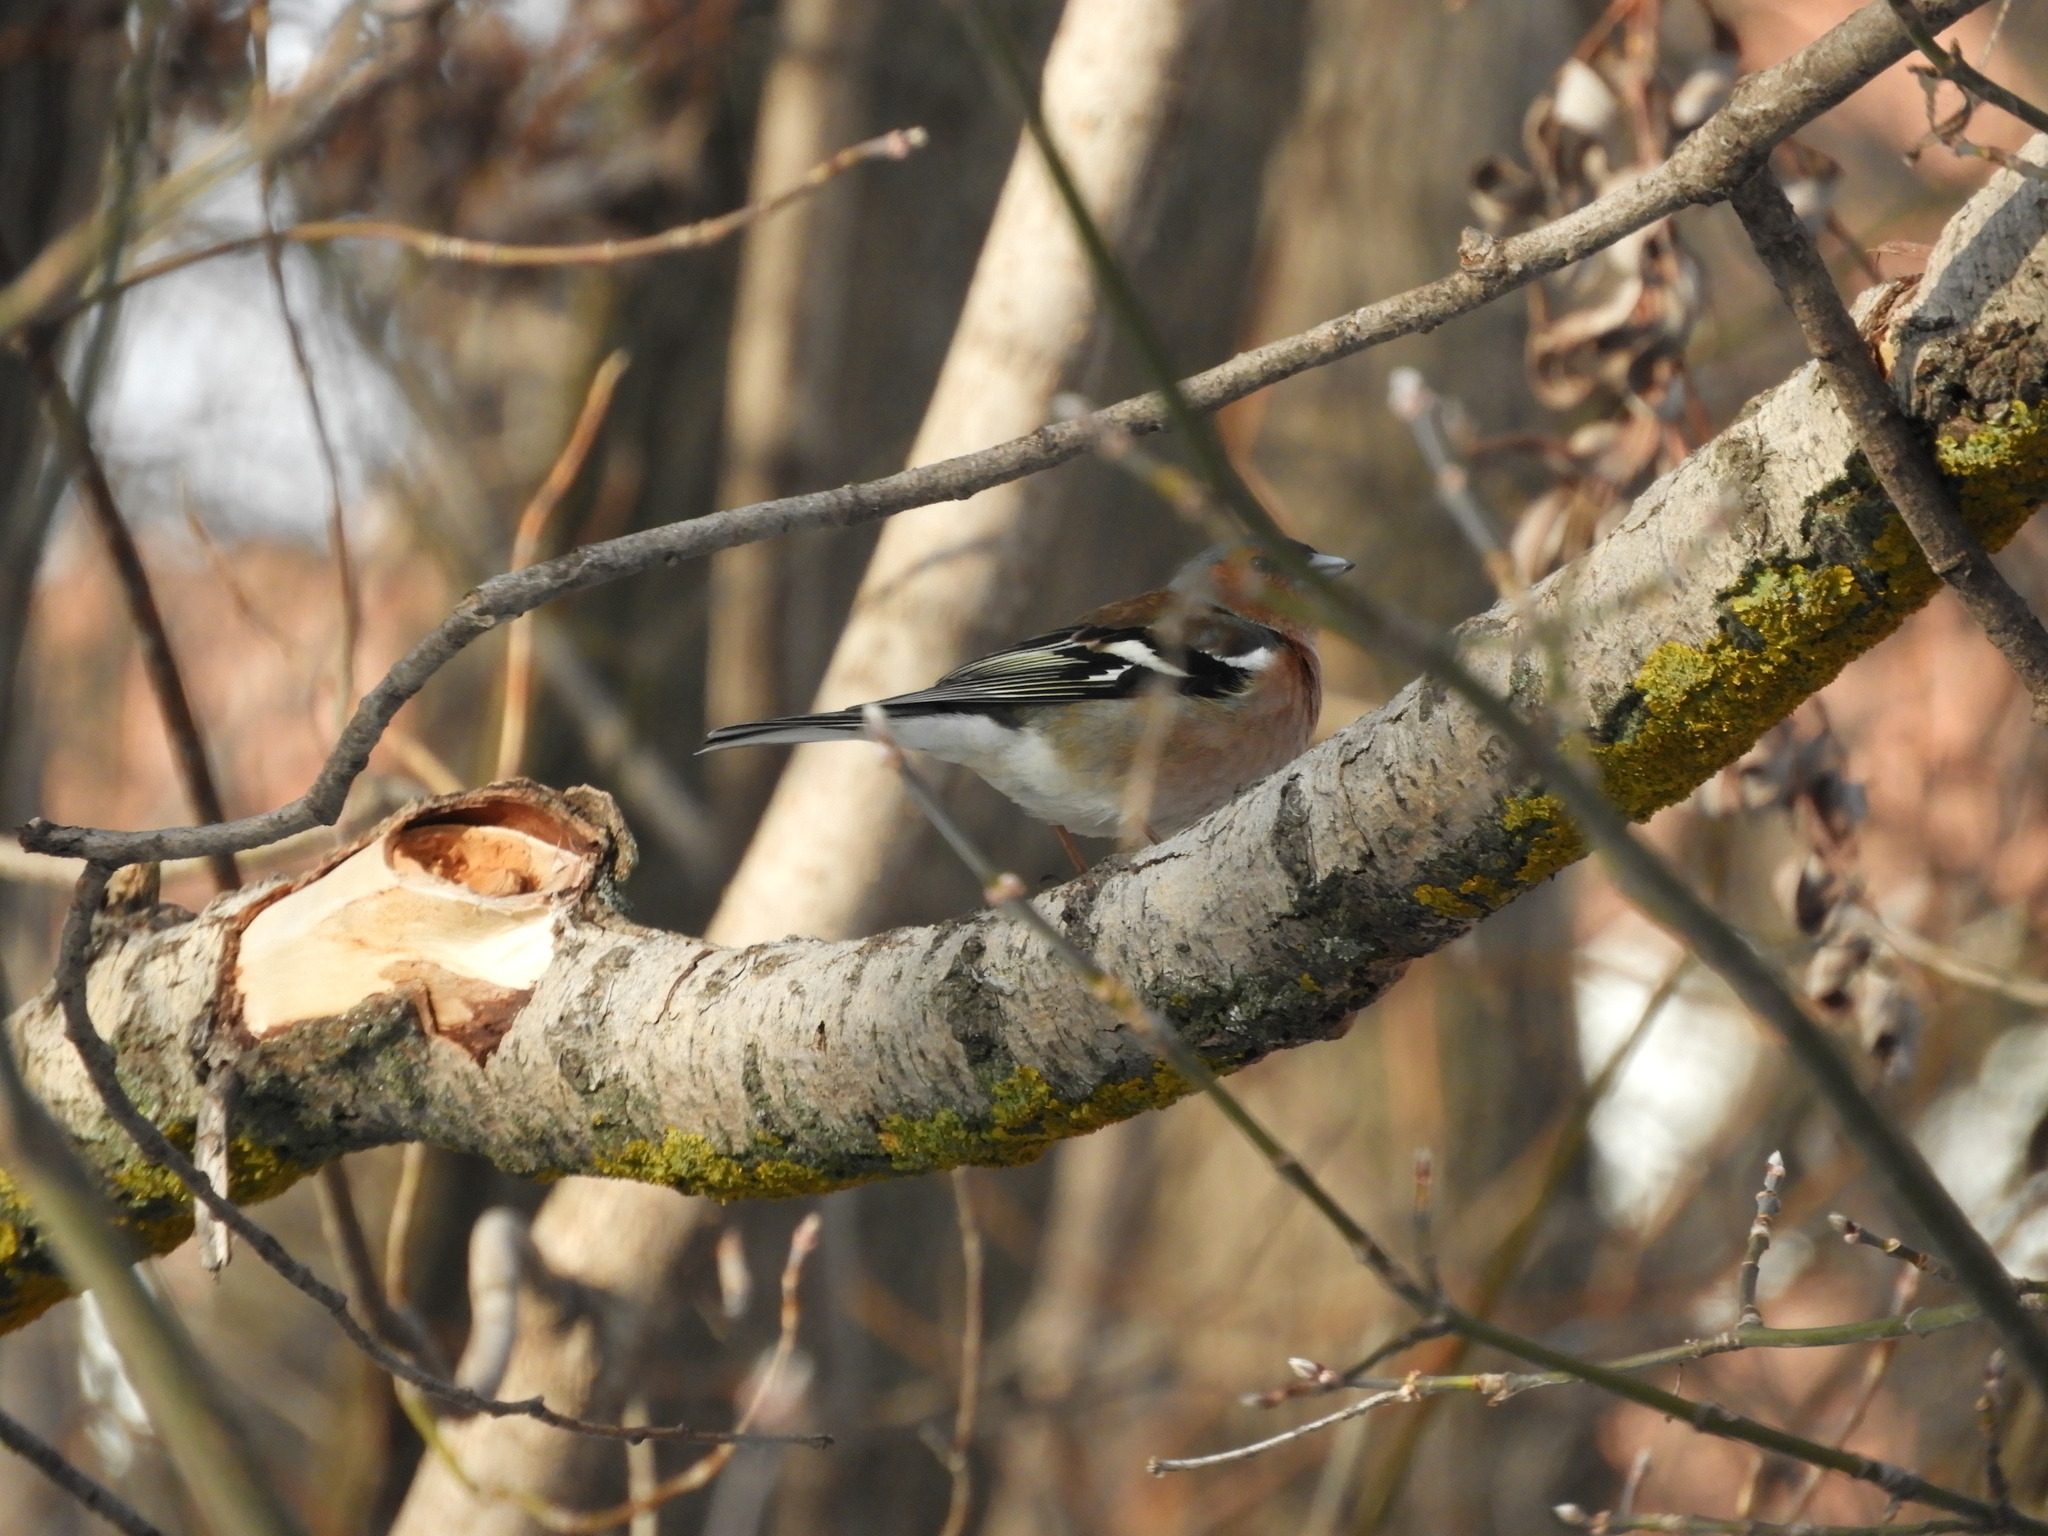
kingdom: Animalia
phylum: Chordata
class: Aves
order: Passeriformes
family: Fringillidae
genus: Fringilla
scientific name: Fringilla coelebs
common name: Common chaffinch
